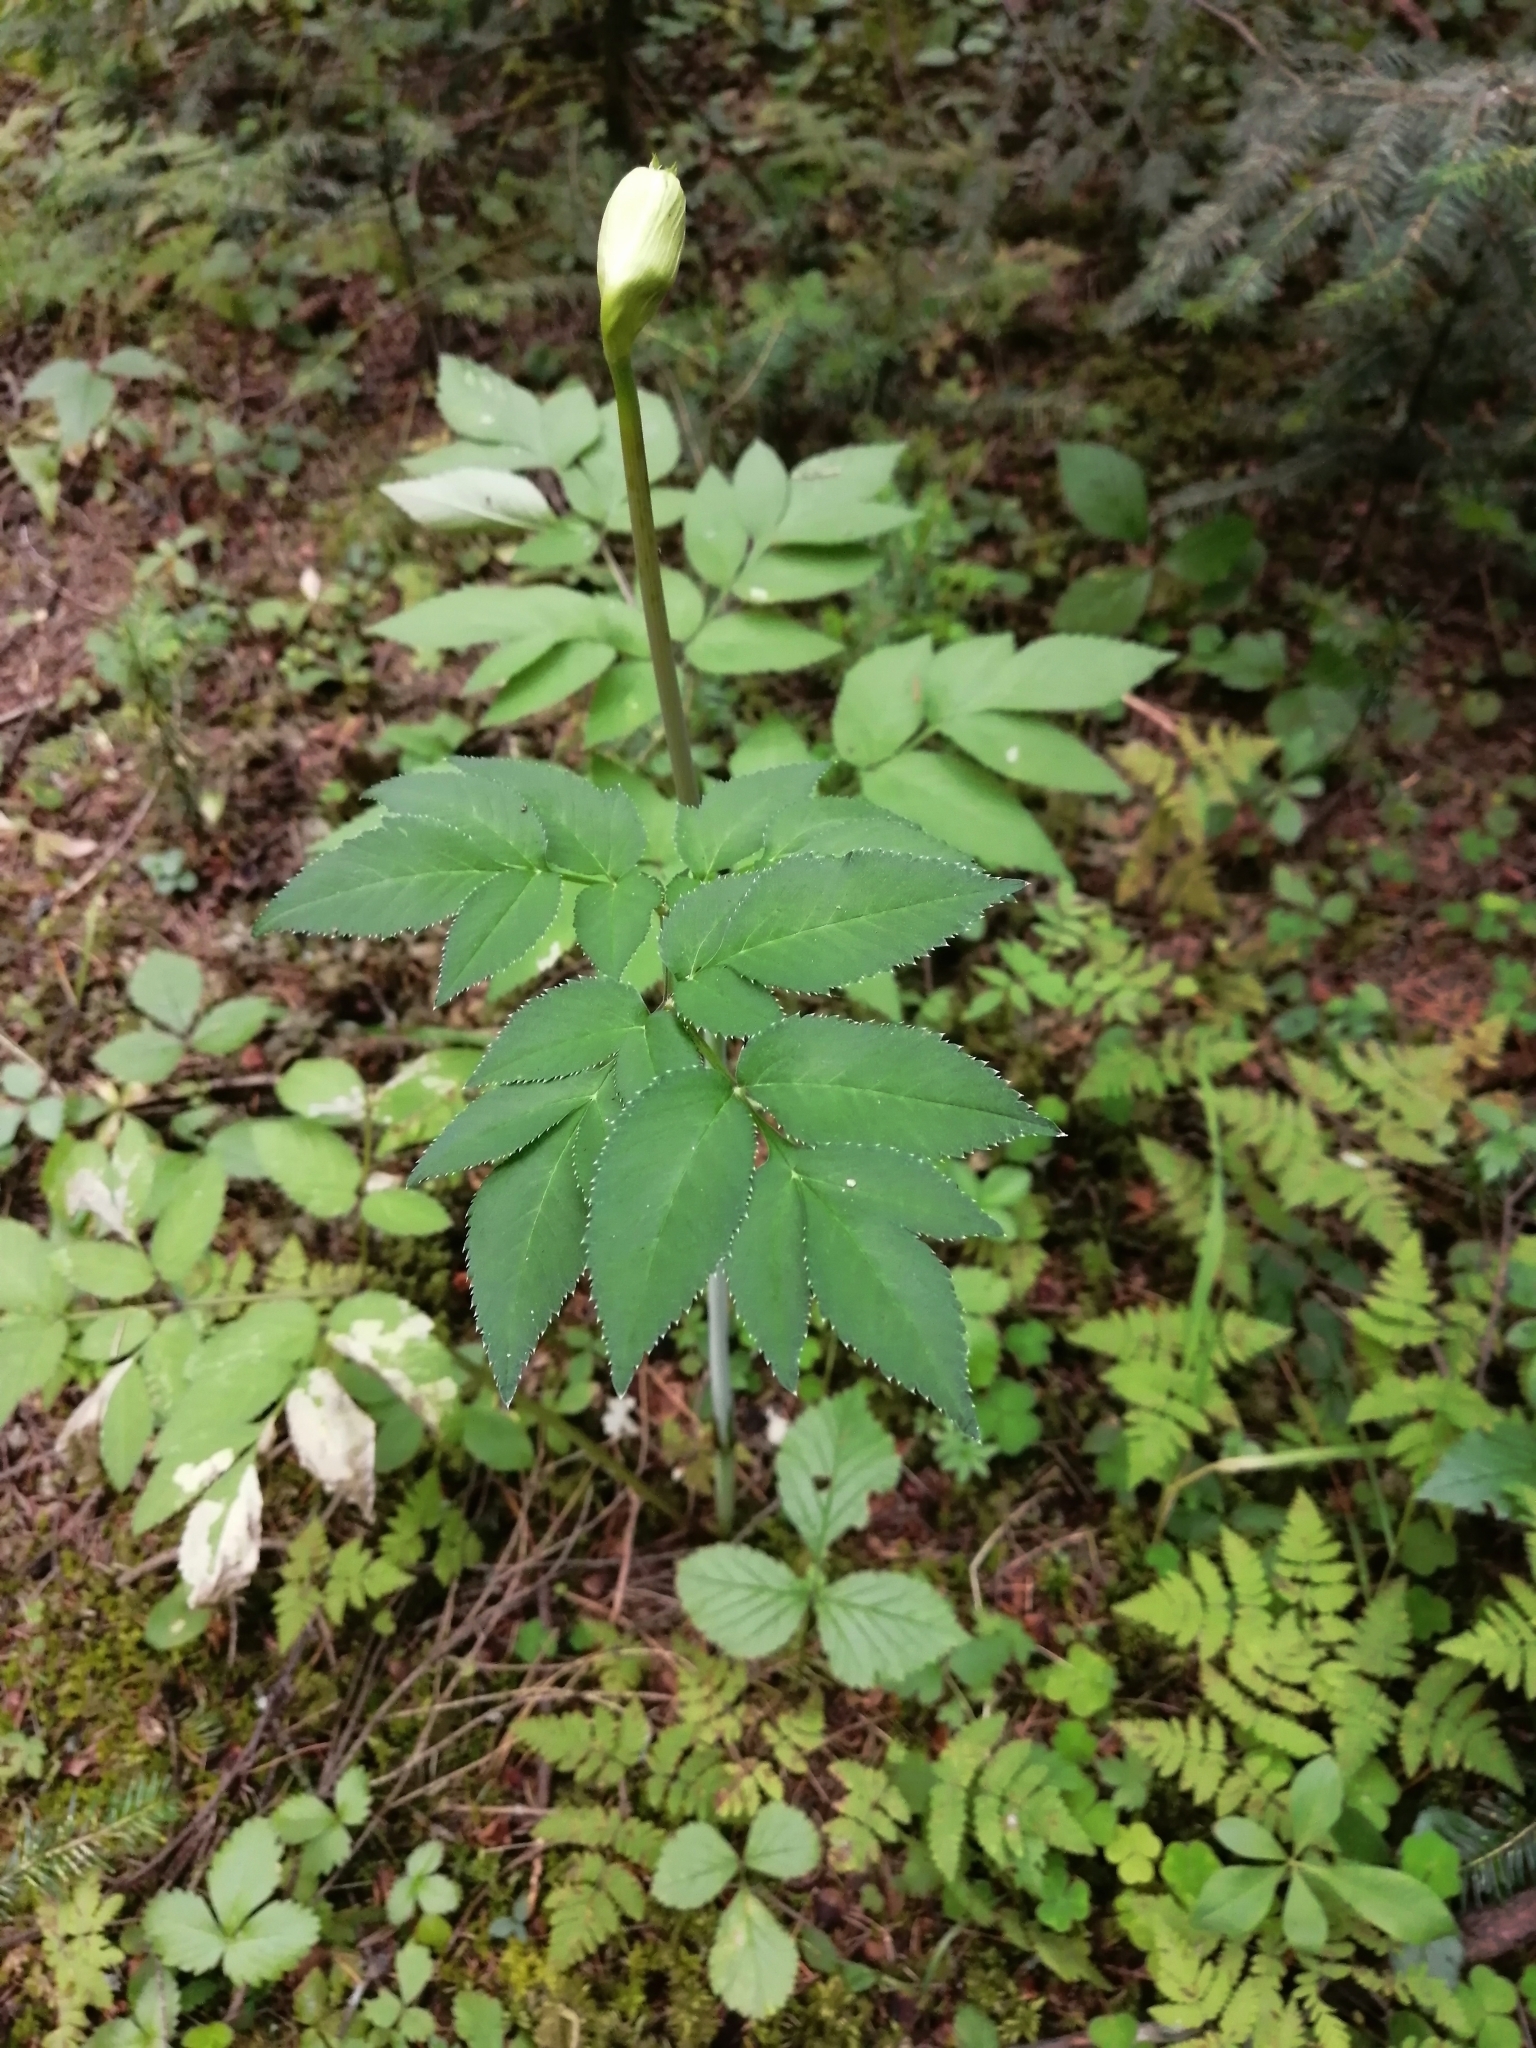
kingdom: Plantae
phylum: Tracheophyta
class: Magnoliopsida
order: Apiales
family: Apiaceae
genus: Angelica
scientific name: Angelica sylvestris
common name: Wild angelica
